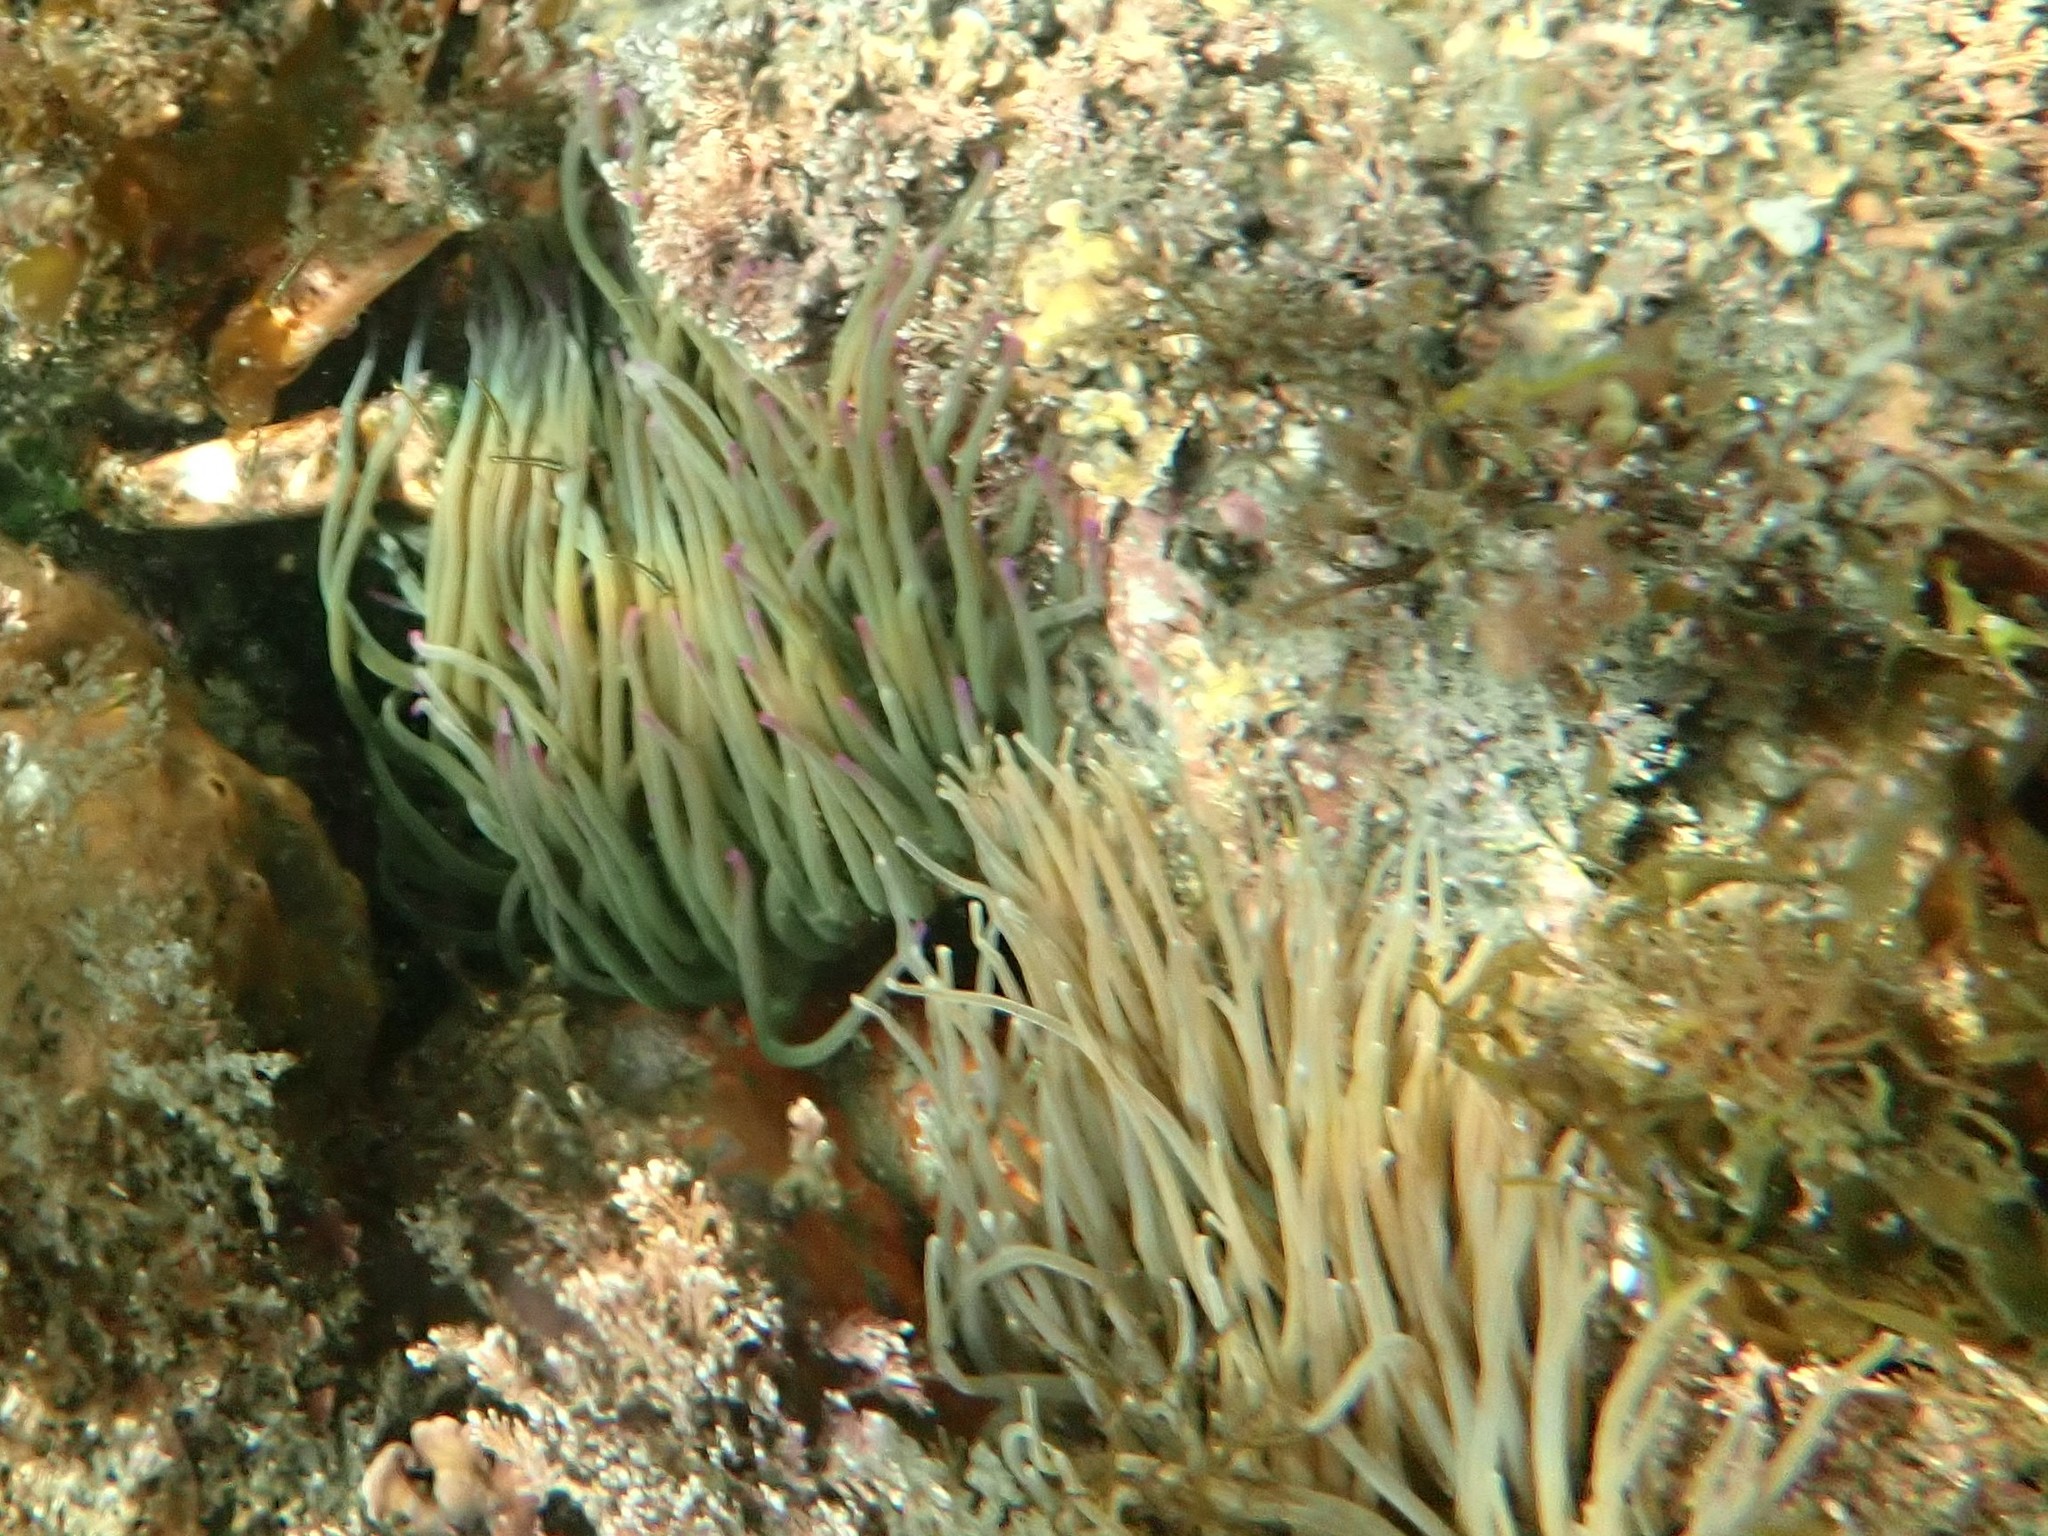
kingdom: Animalia
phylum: Cnidaria
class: Anthozoa
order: Actiniaria
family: Actiniidae
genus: Anemonia
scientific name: Anemonia viridis
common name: Snakelocks anemone
